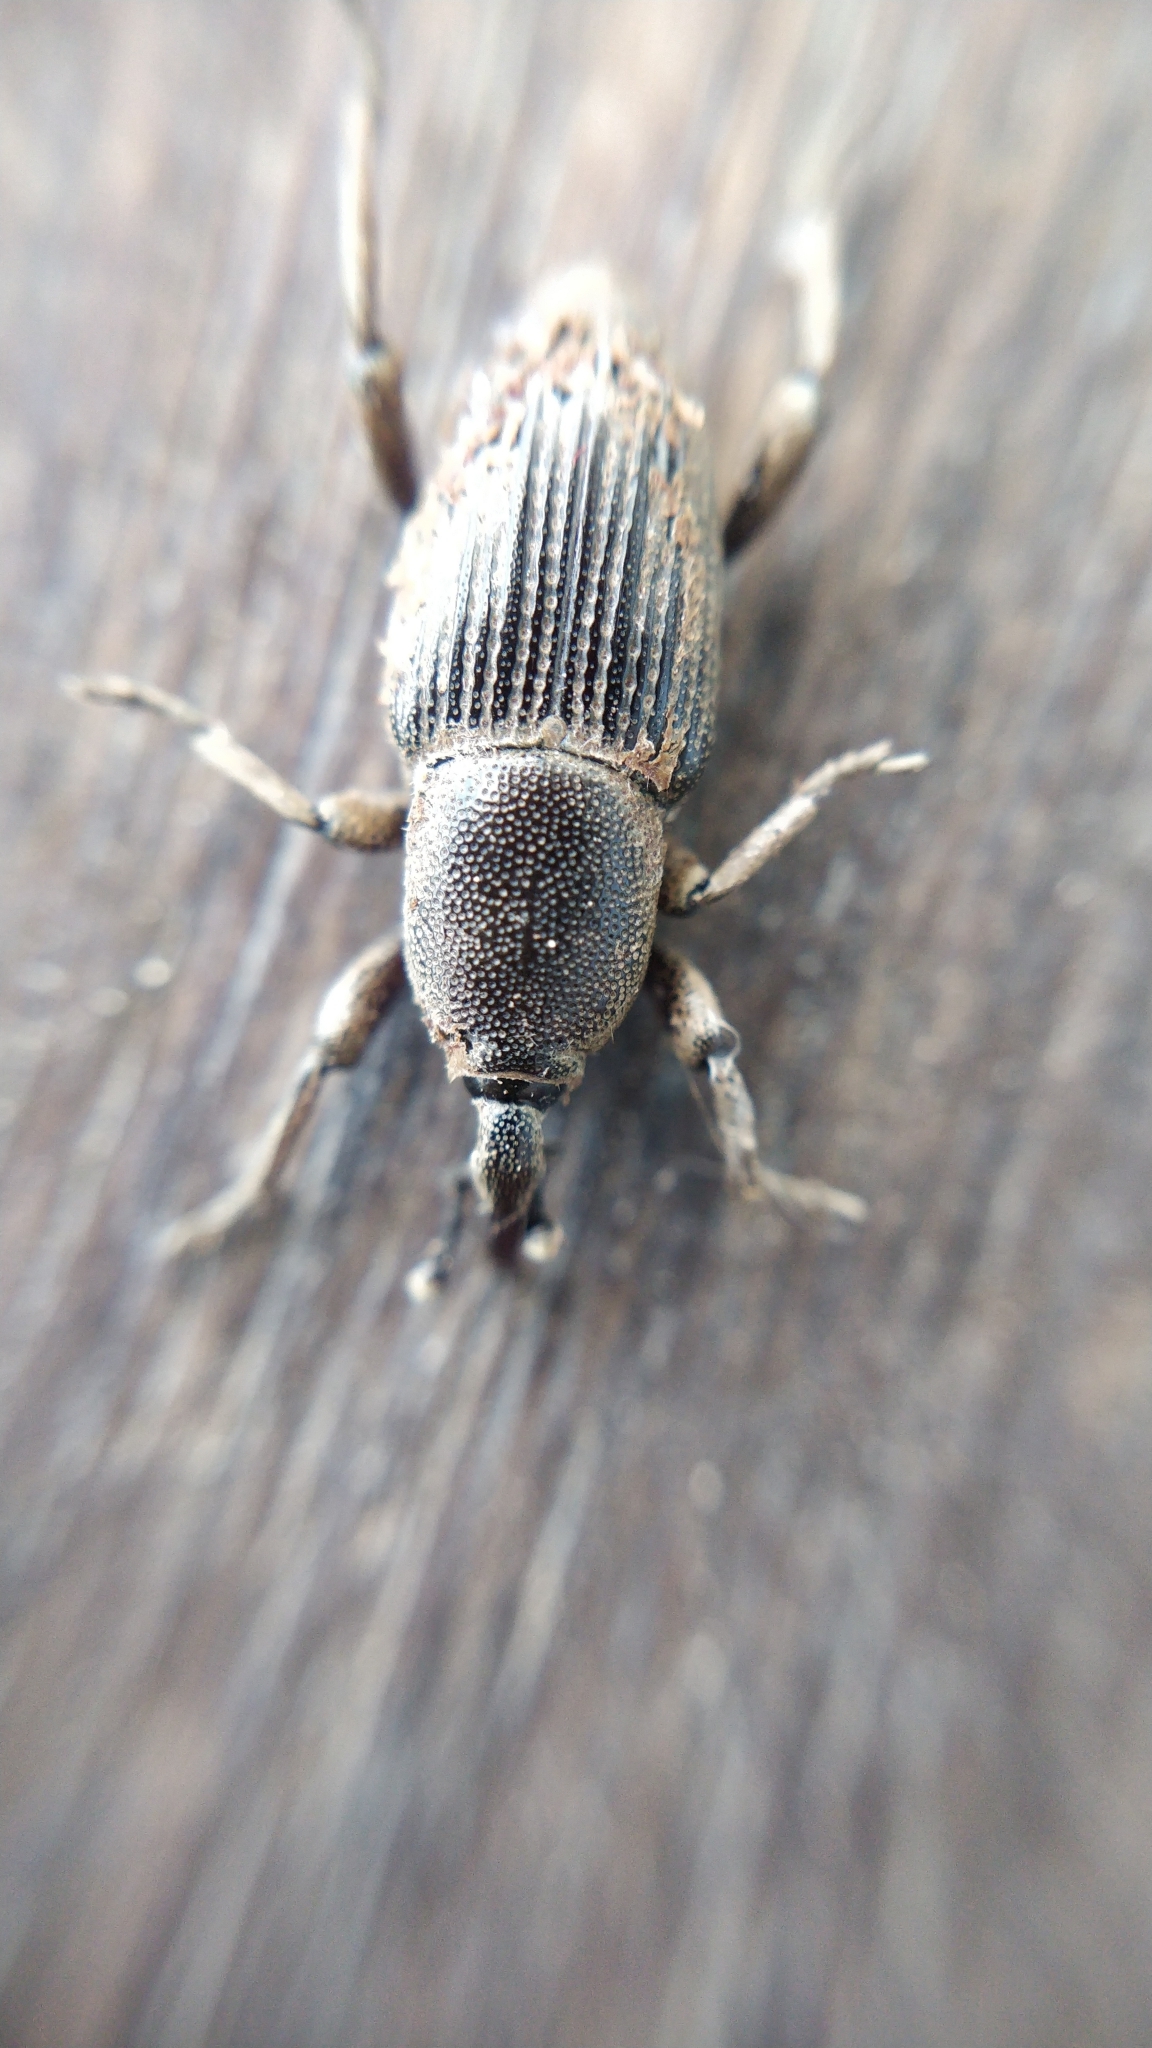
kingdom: Animalia
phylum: Arthropoda
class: Insecta
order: Coleoptera
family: Dryophthoridae
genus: Cosmopolites
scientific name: Cosmopolites sordidus
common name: Palm weevil
